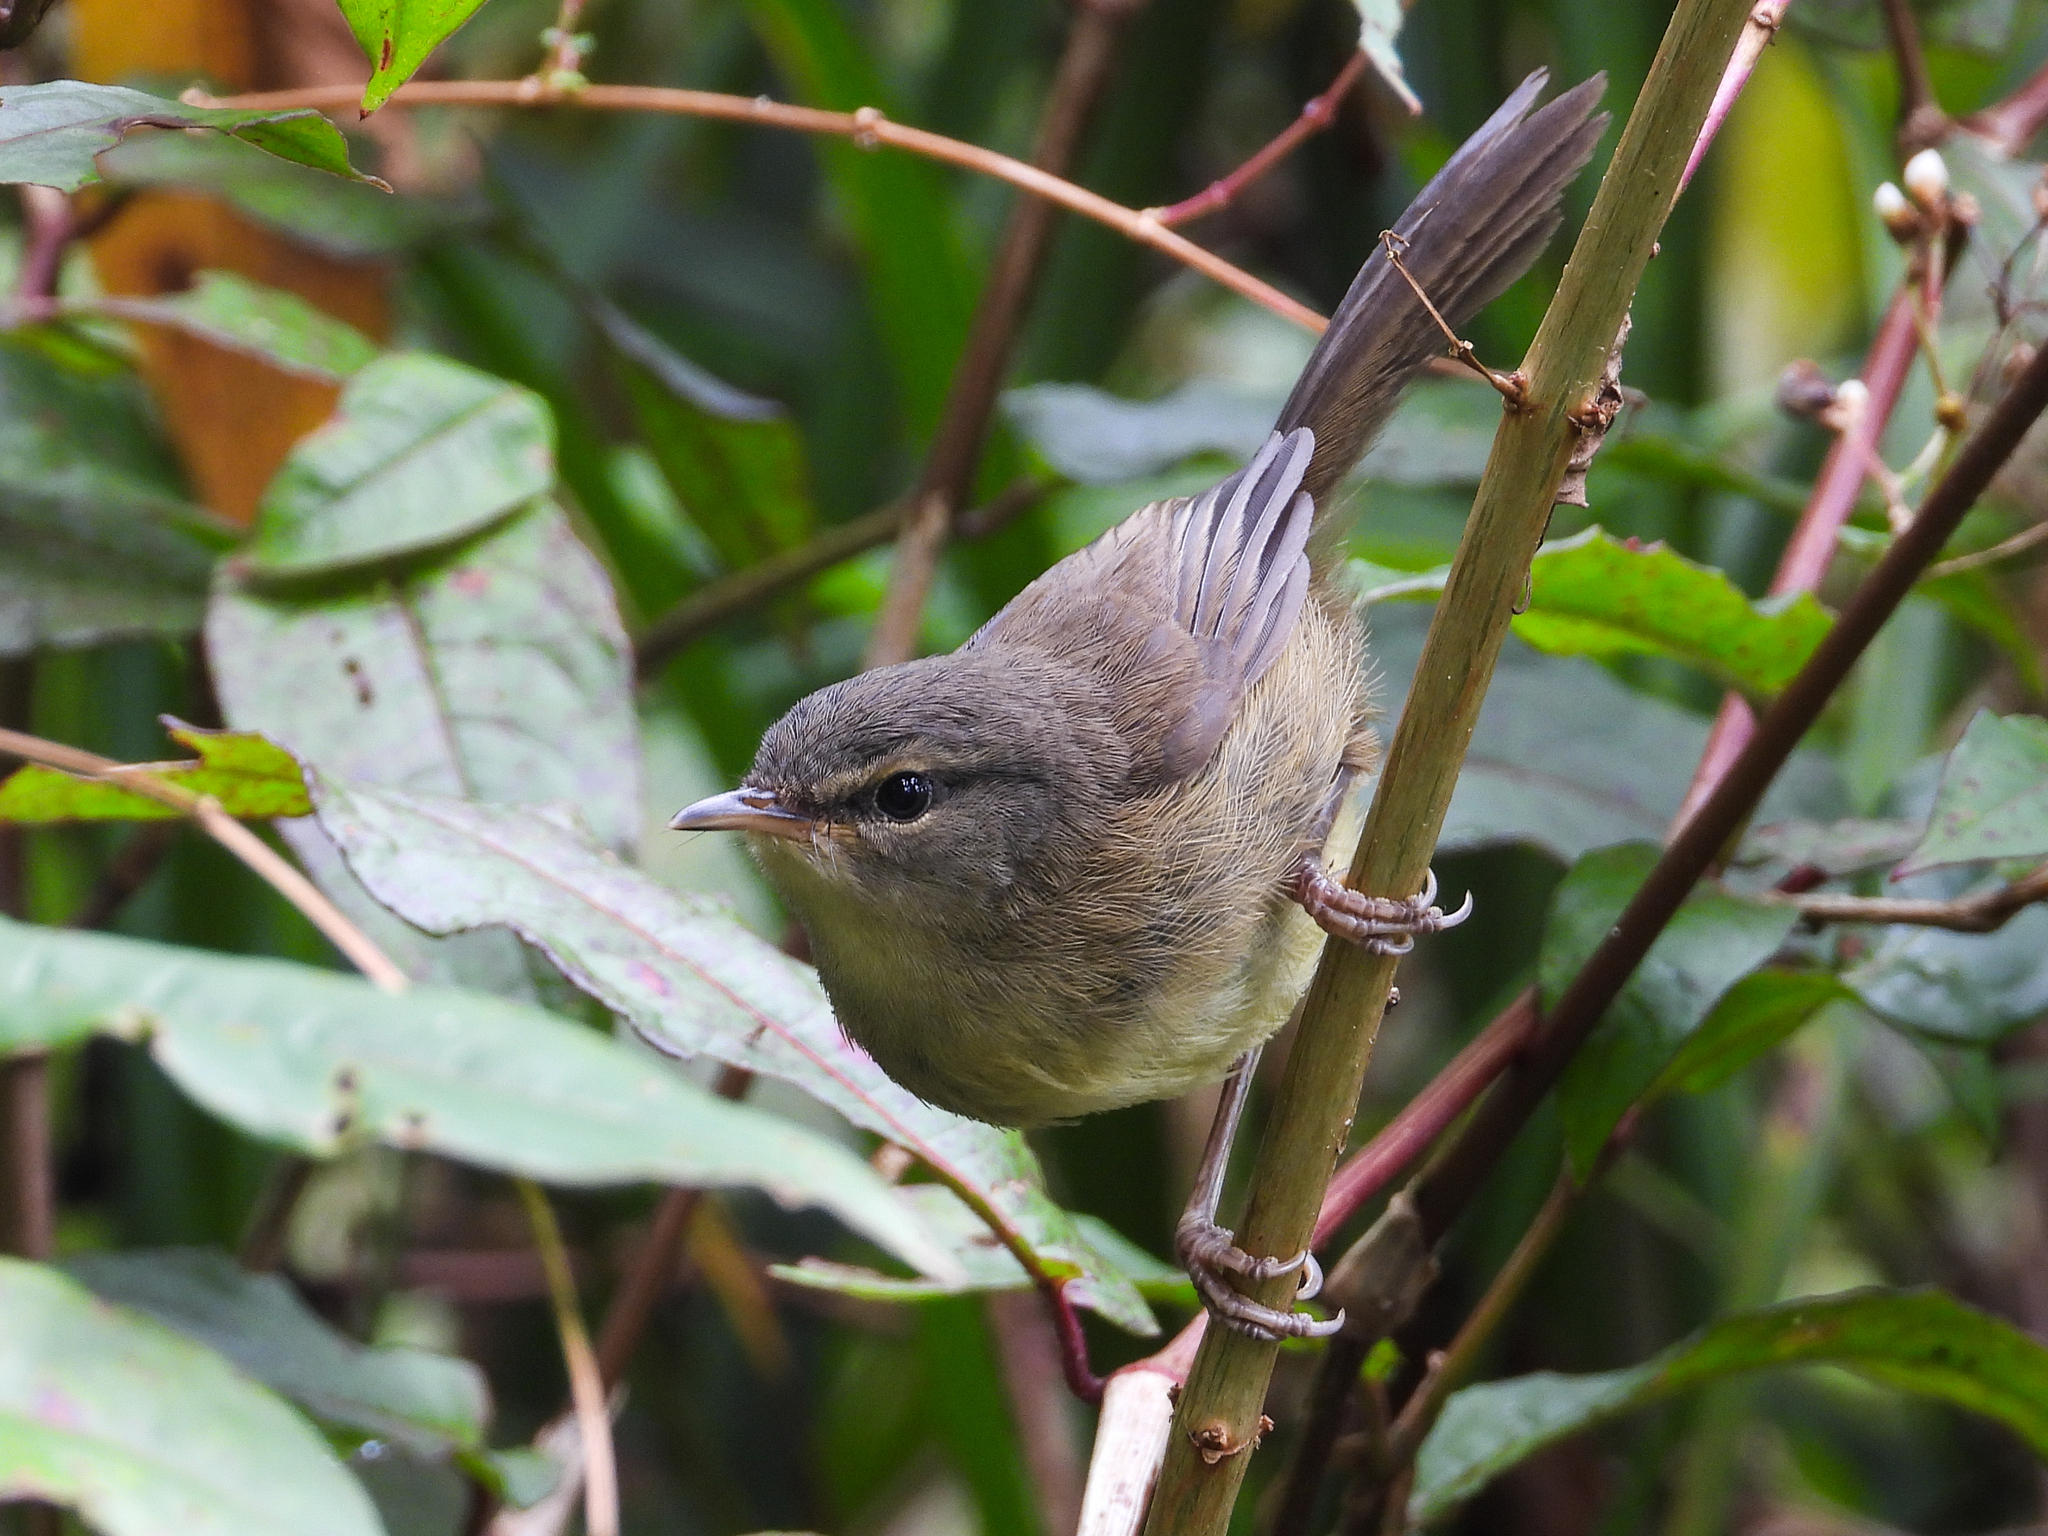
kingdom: Animalia
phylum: Chordata
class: Aves
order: Passeriformes
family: Cettiidae
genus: Horornis
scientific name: Horornis flavolivaceus
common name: Aberrant bush warbler
